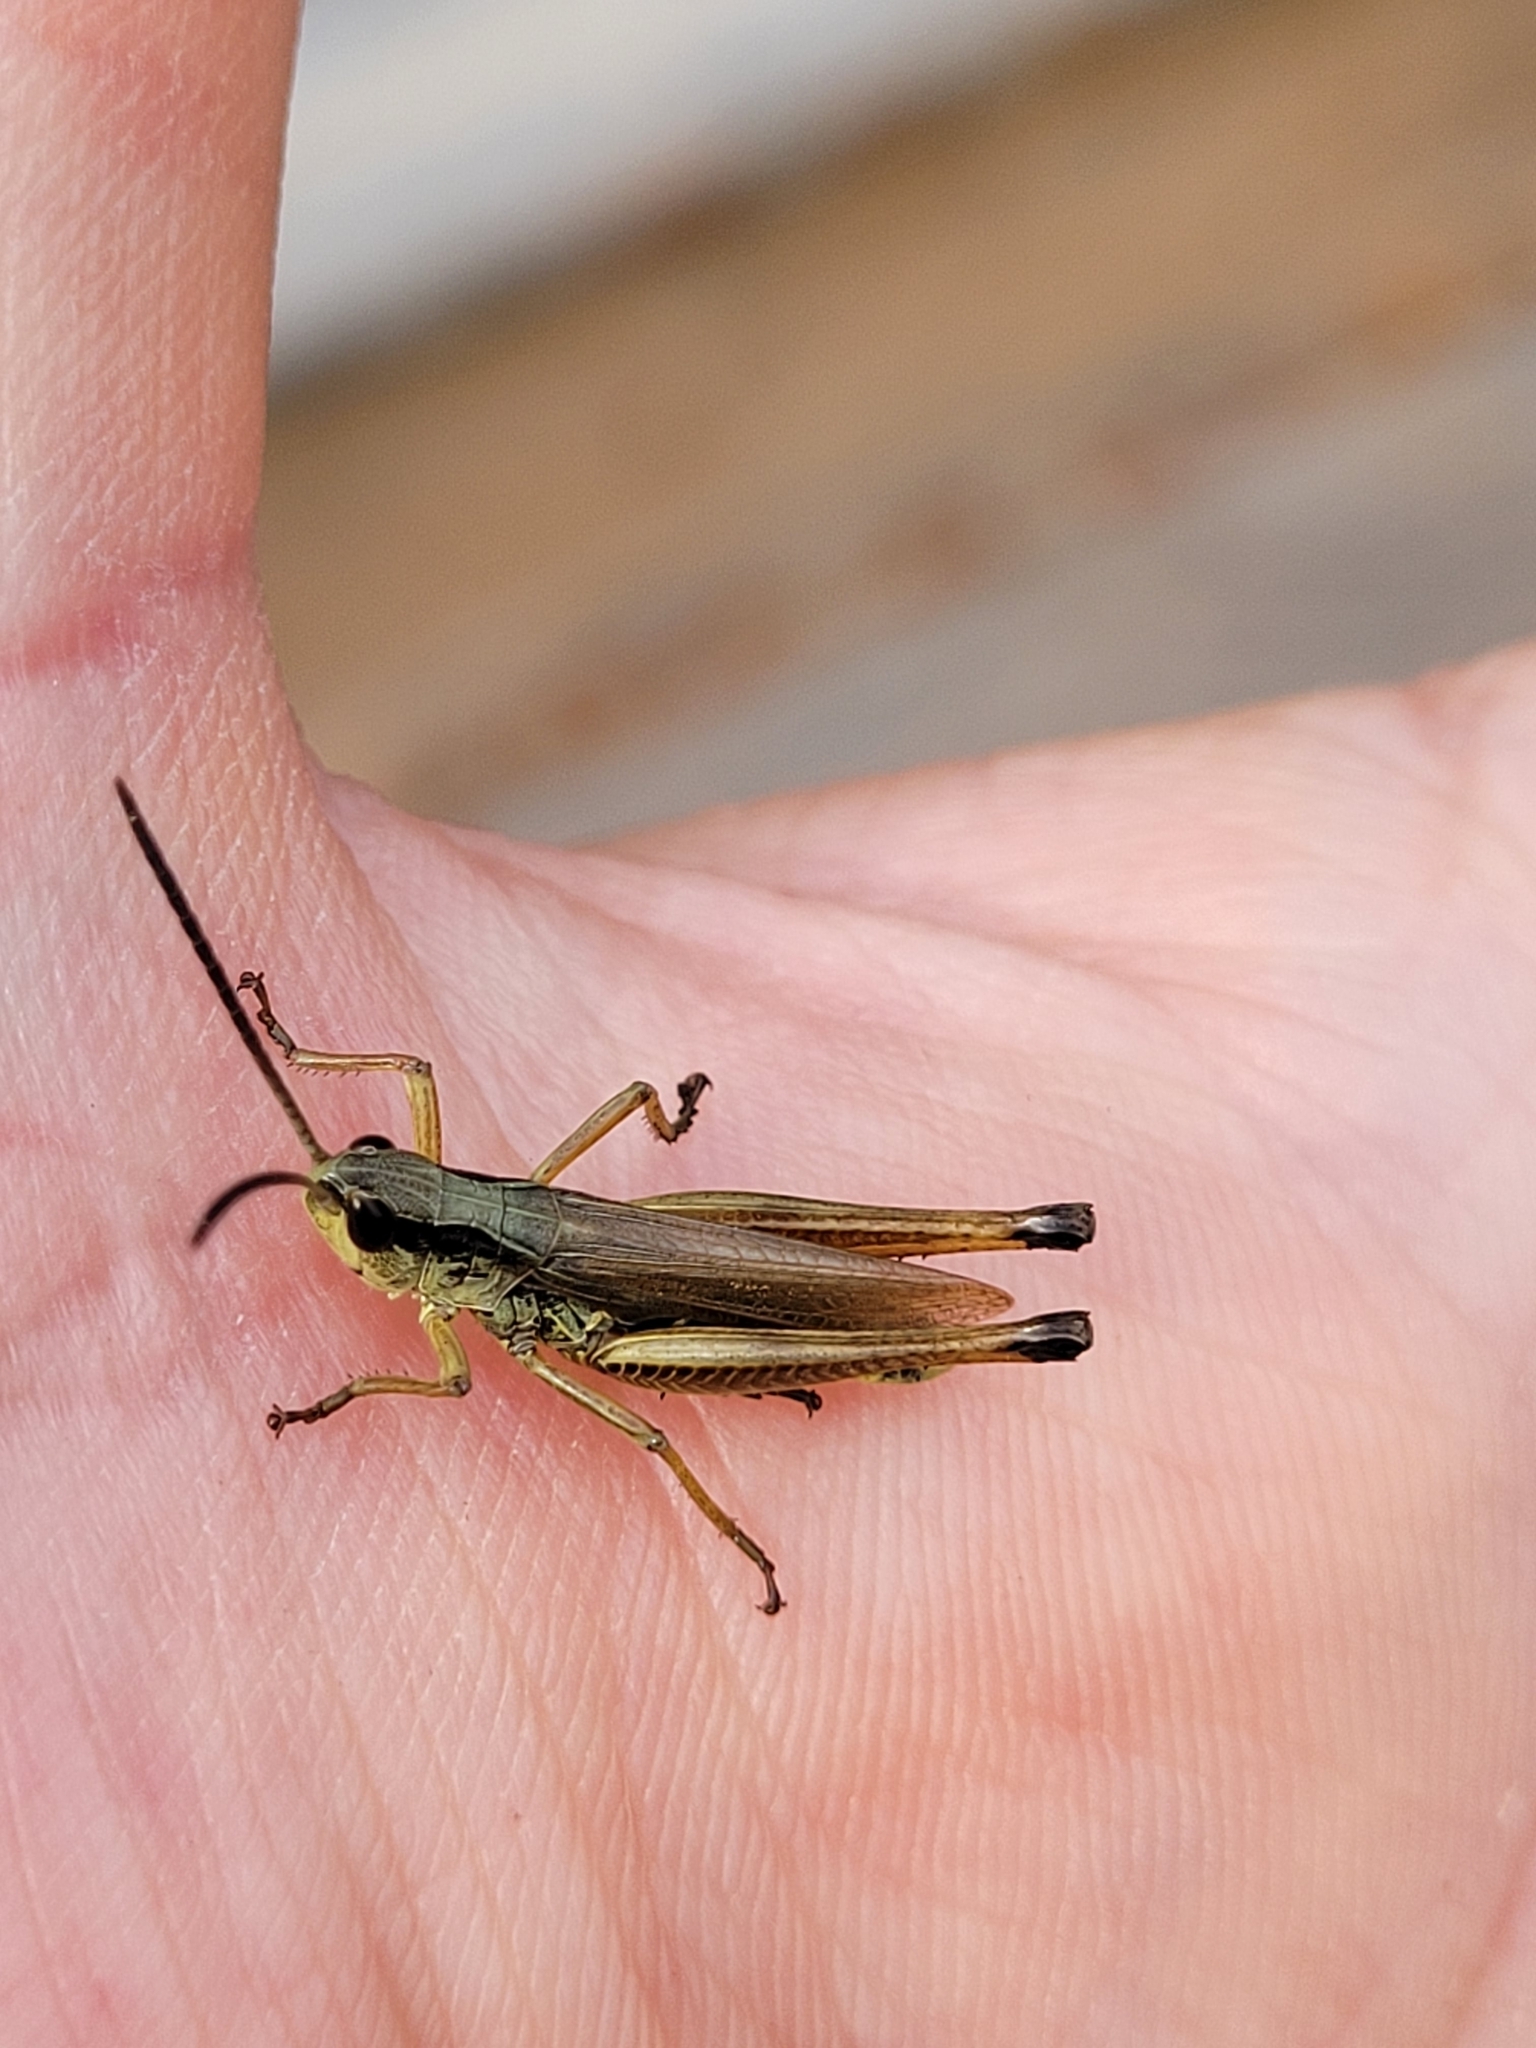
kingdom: Animalia
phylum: Arthropoda
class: Insecta
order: Orthoptera
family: Acrididae
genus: Pseudochorthippus
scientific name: Pseudochorthippus curtipennis
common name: Marsh meadow grasshopper
